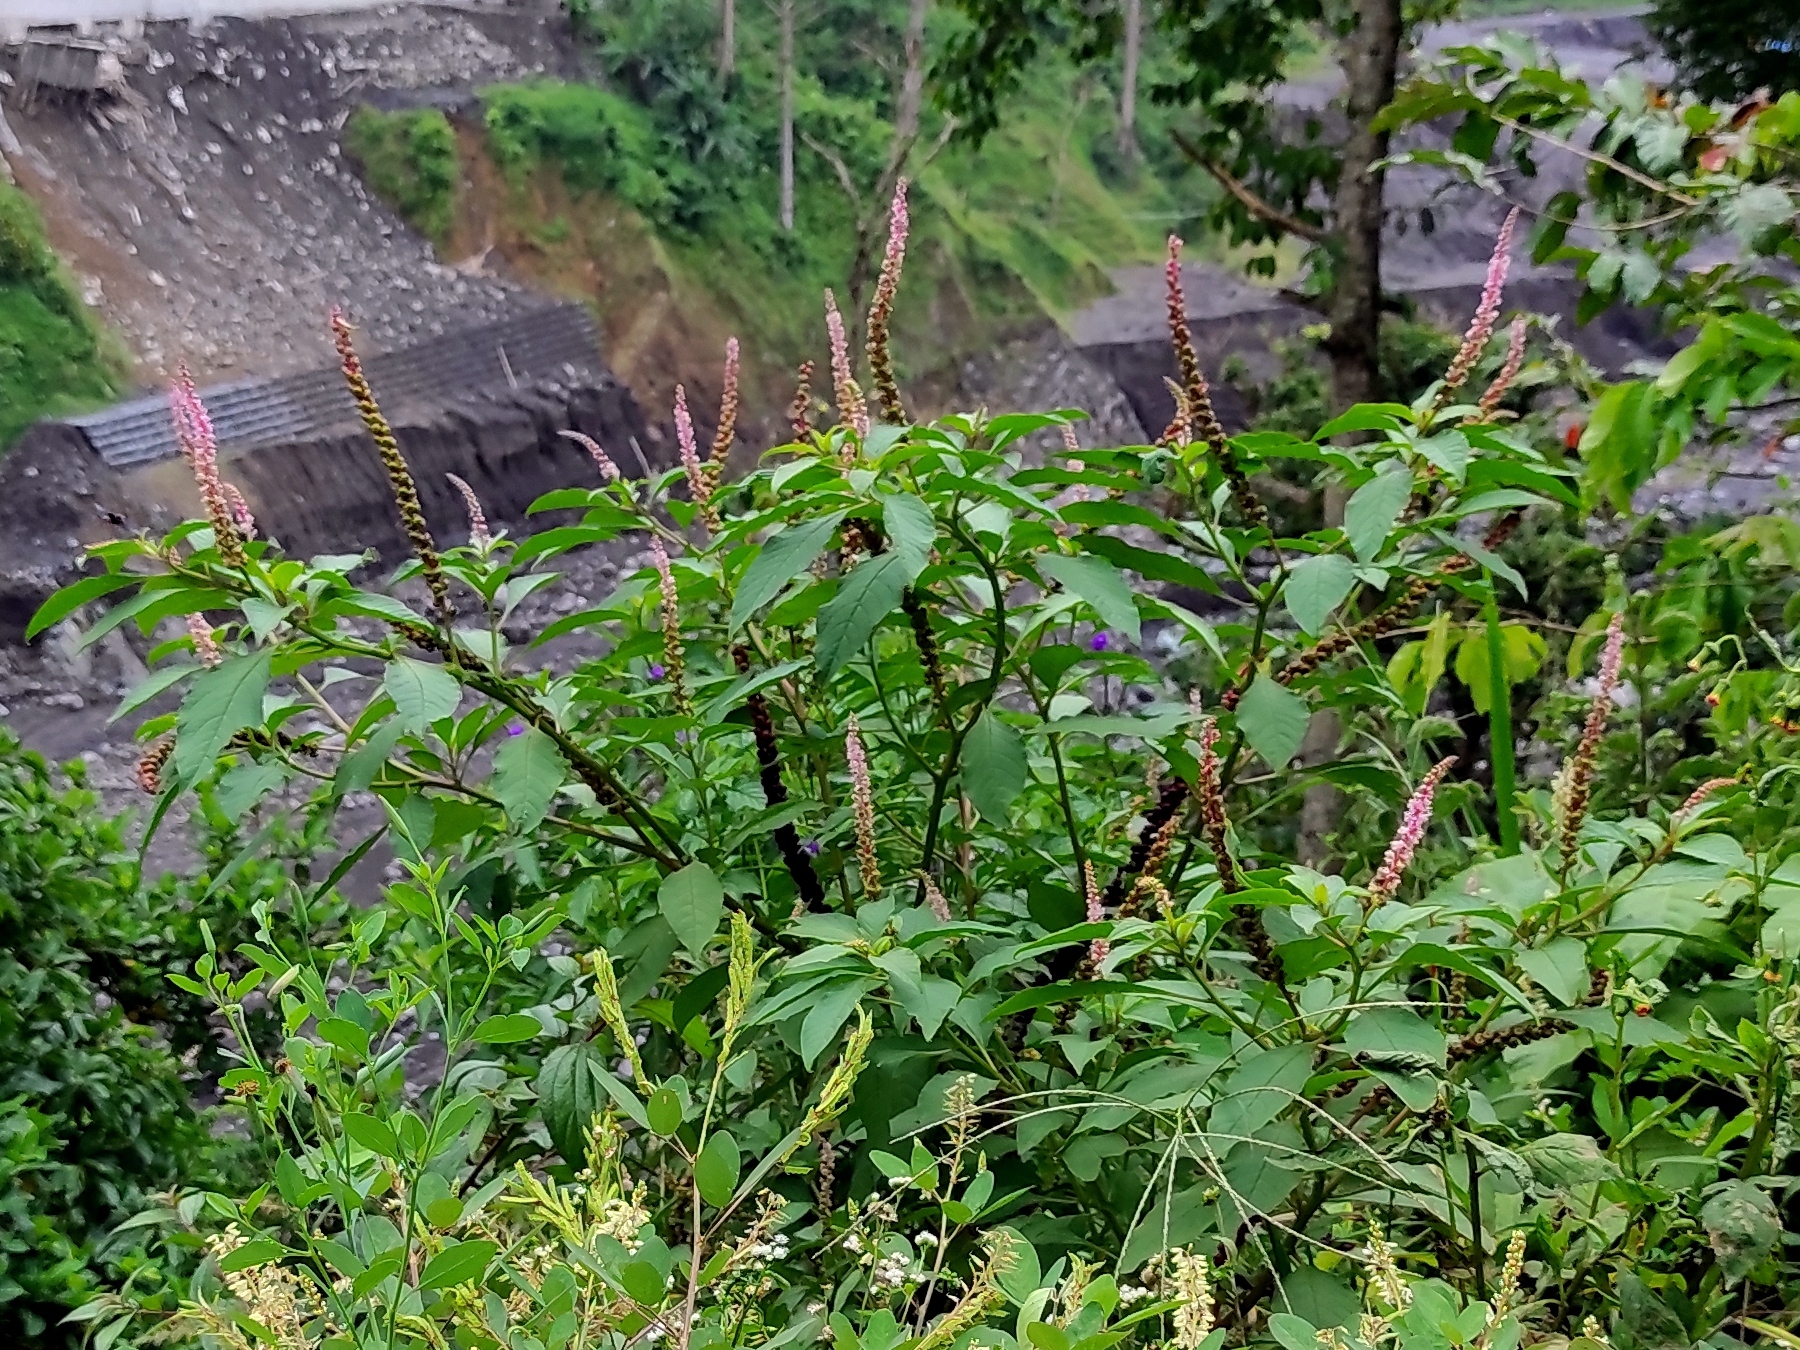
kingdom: Plantae
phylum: Tracheophyta
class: Magnoliopsida
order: Caryophyllales
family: Phytolaccaceae
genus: Phytolacca
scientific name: Phytolacca icosandra
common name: Button pokeweed
